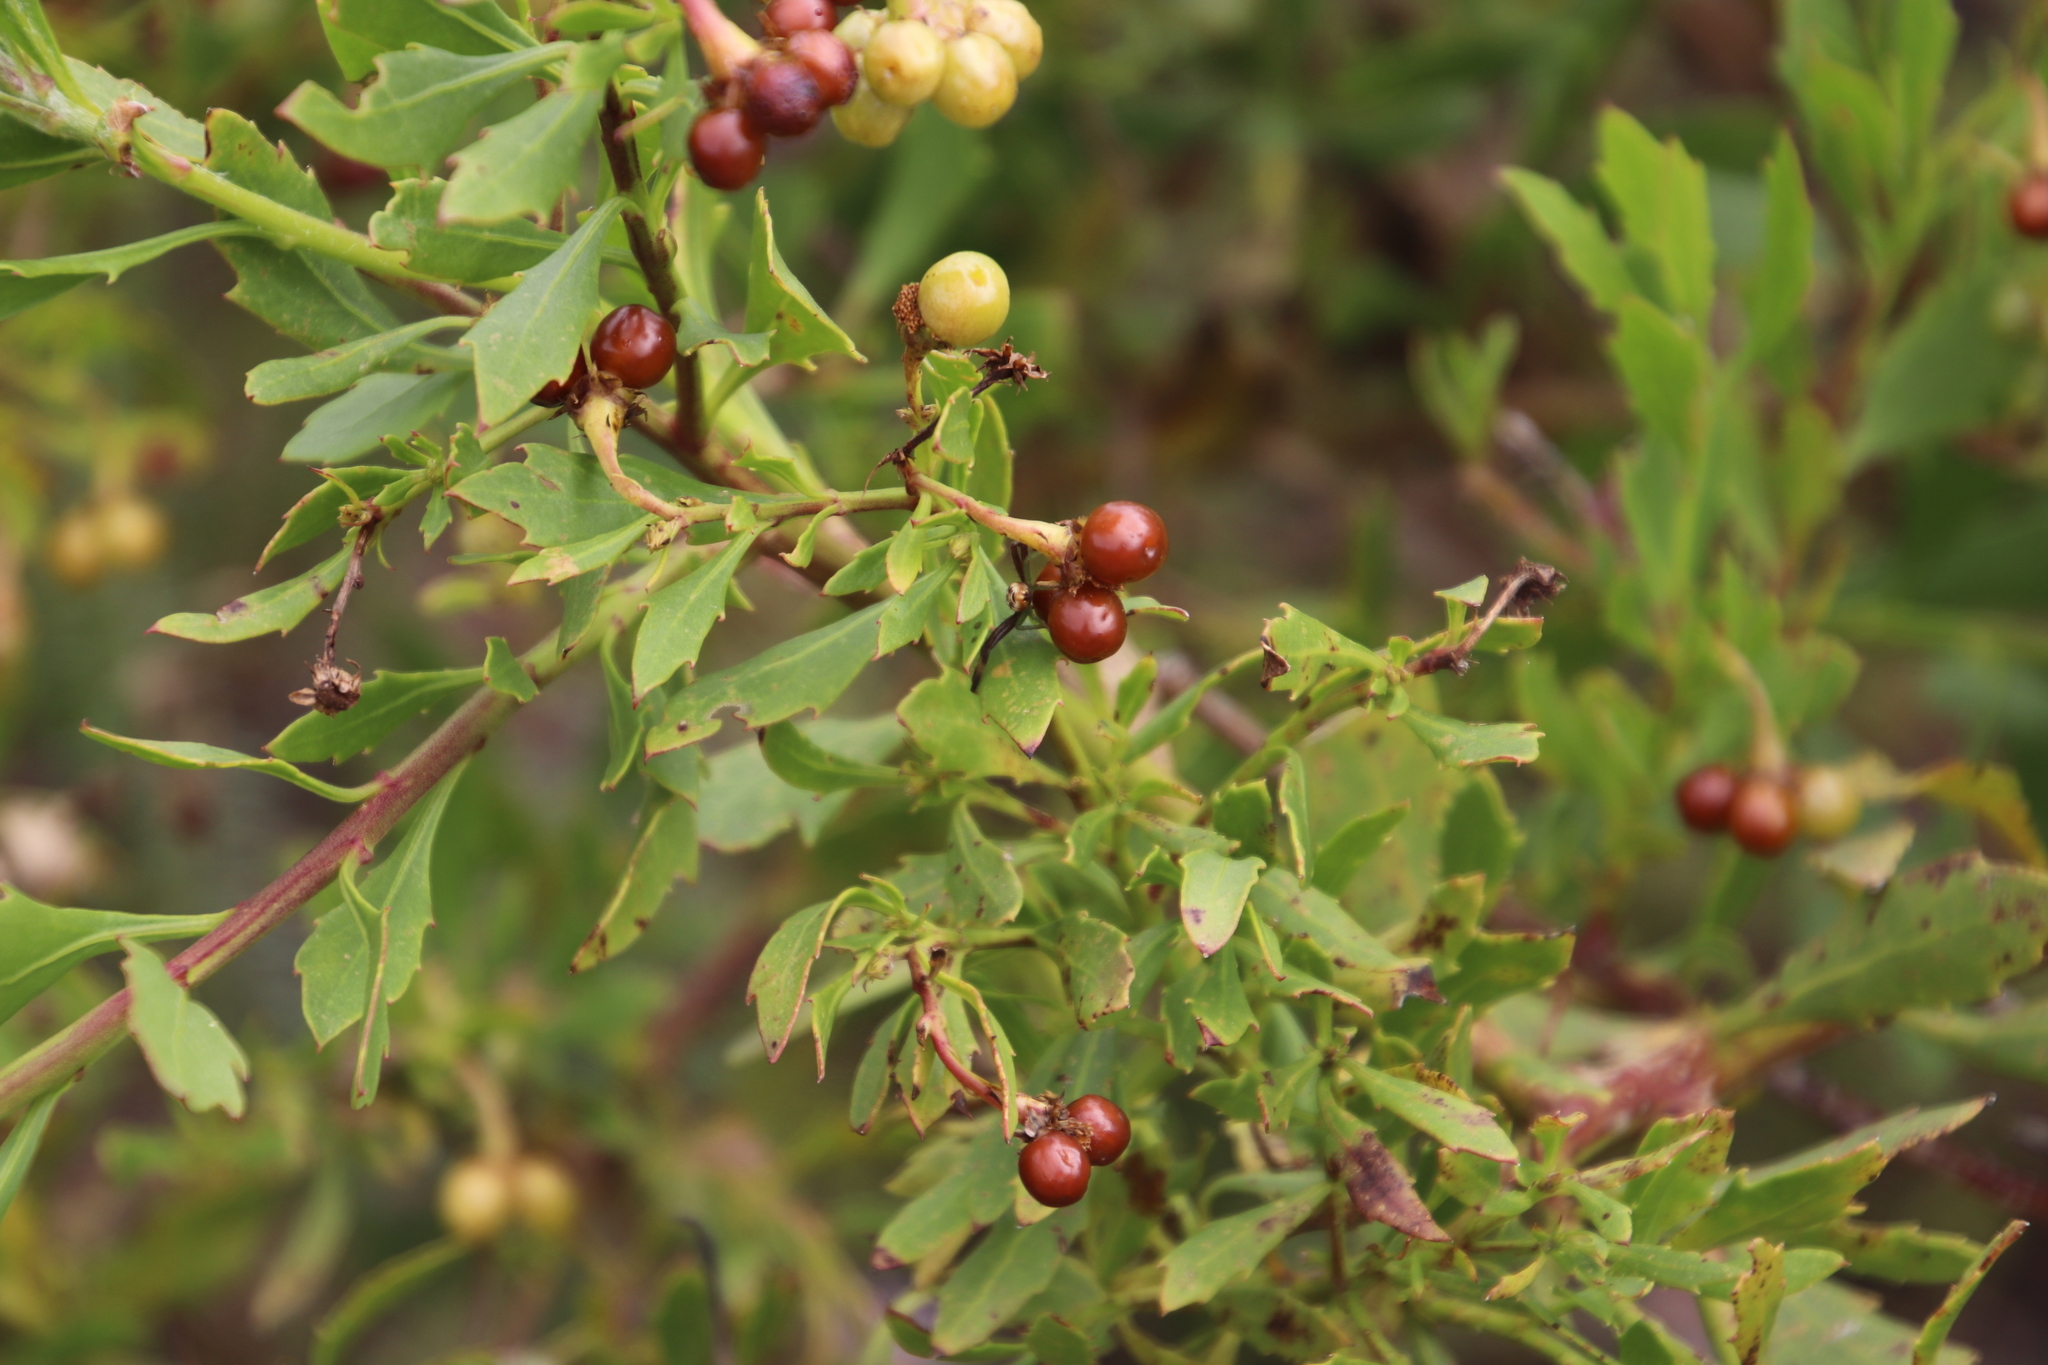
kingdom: Plantae
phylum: Tracheophyta
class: Magnoliopsida
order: Asterales
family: Asteraceae
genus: Osteospermum
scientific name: Osteospermum moniliferum
